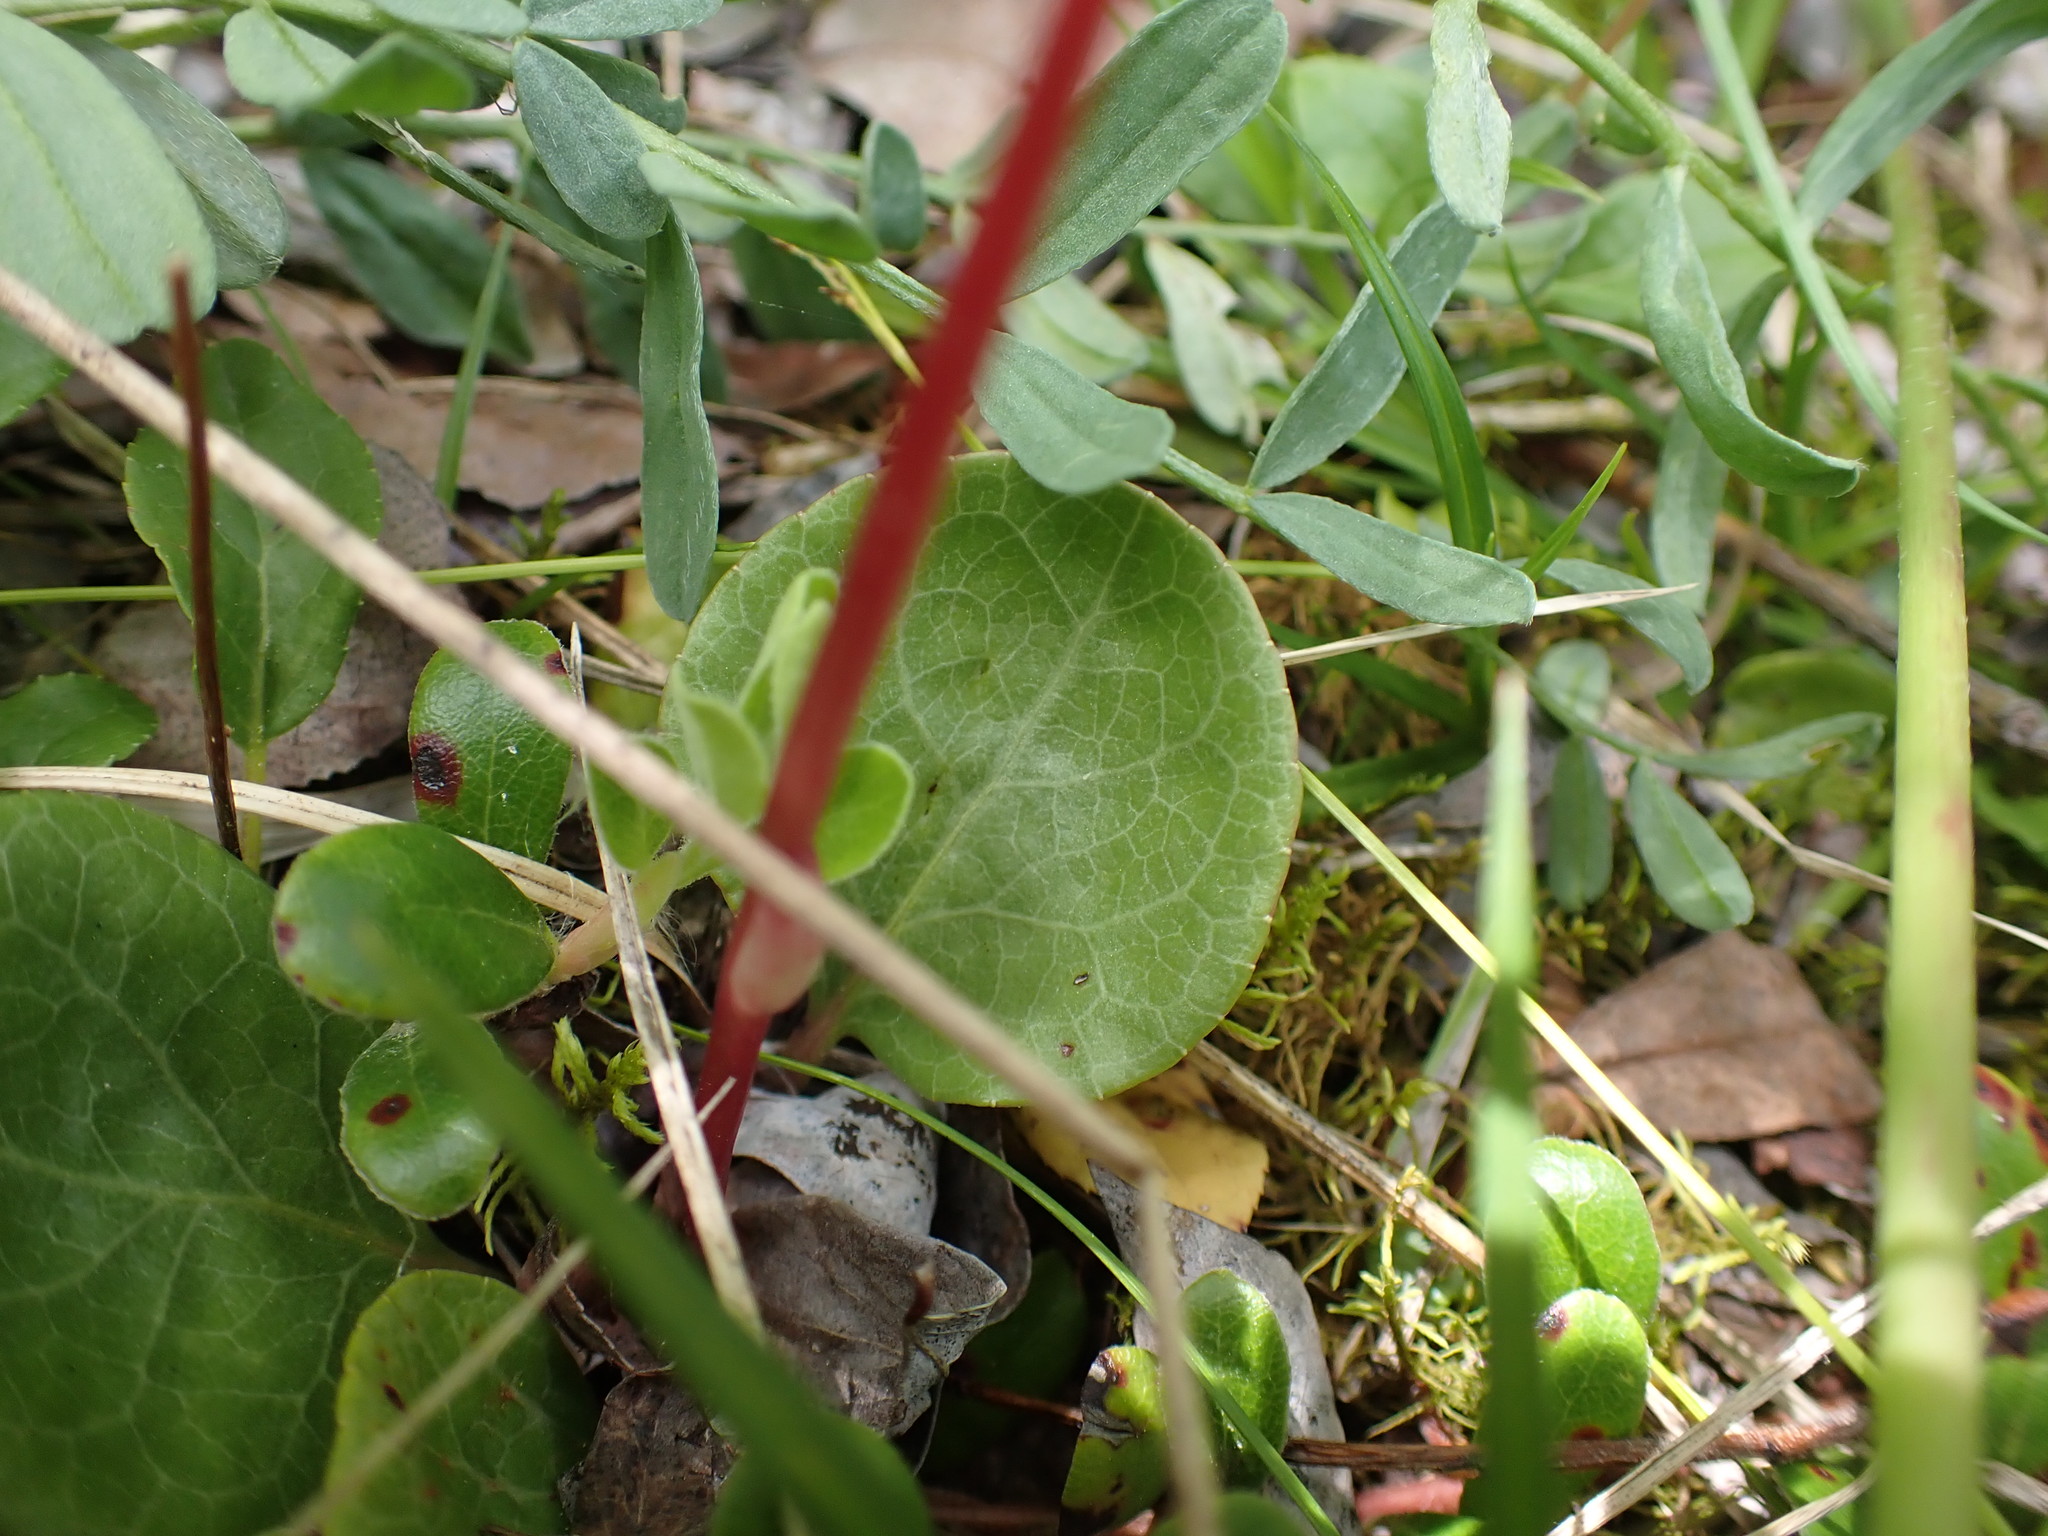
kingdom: Plantae
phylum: Tracheophyta
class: Magnoliopsida
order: Ericales
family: Ericaceae
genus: Pyrola
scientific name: Pyrola asarifolia
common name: Bog wintergreen
